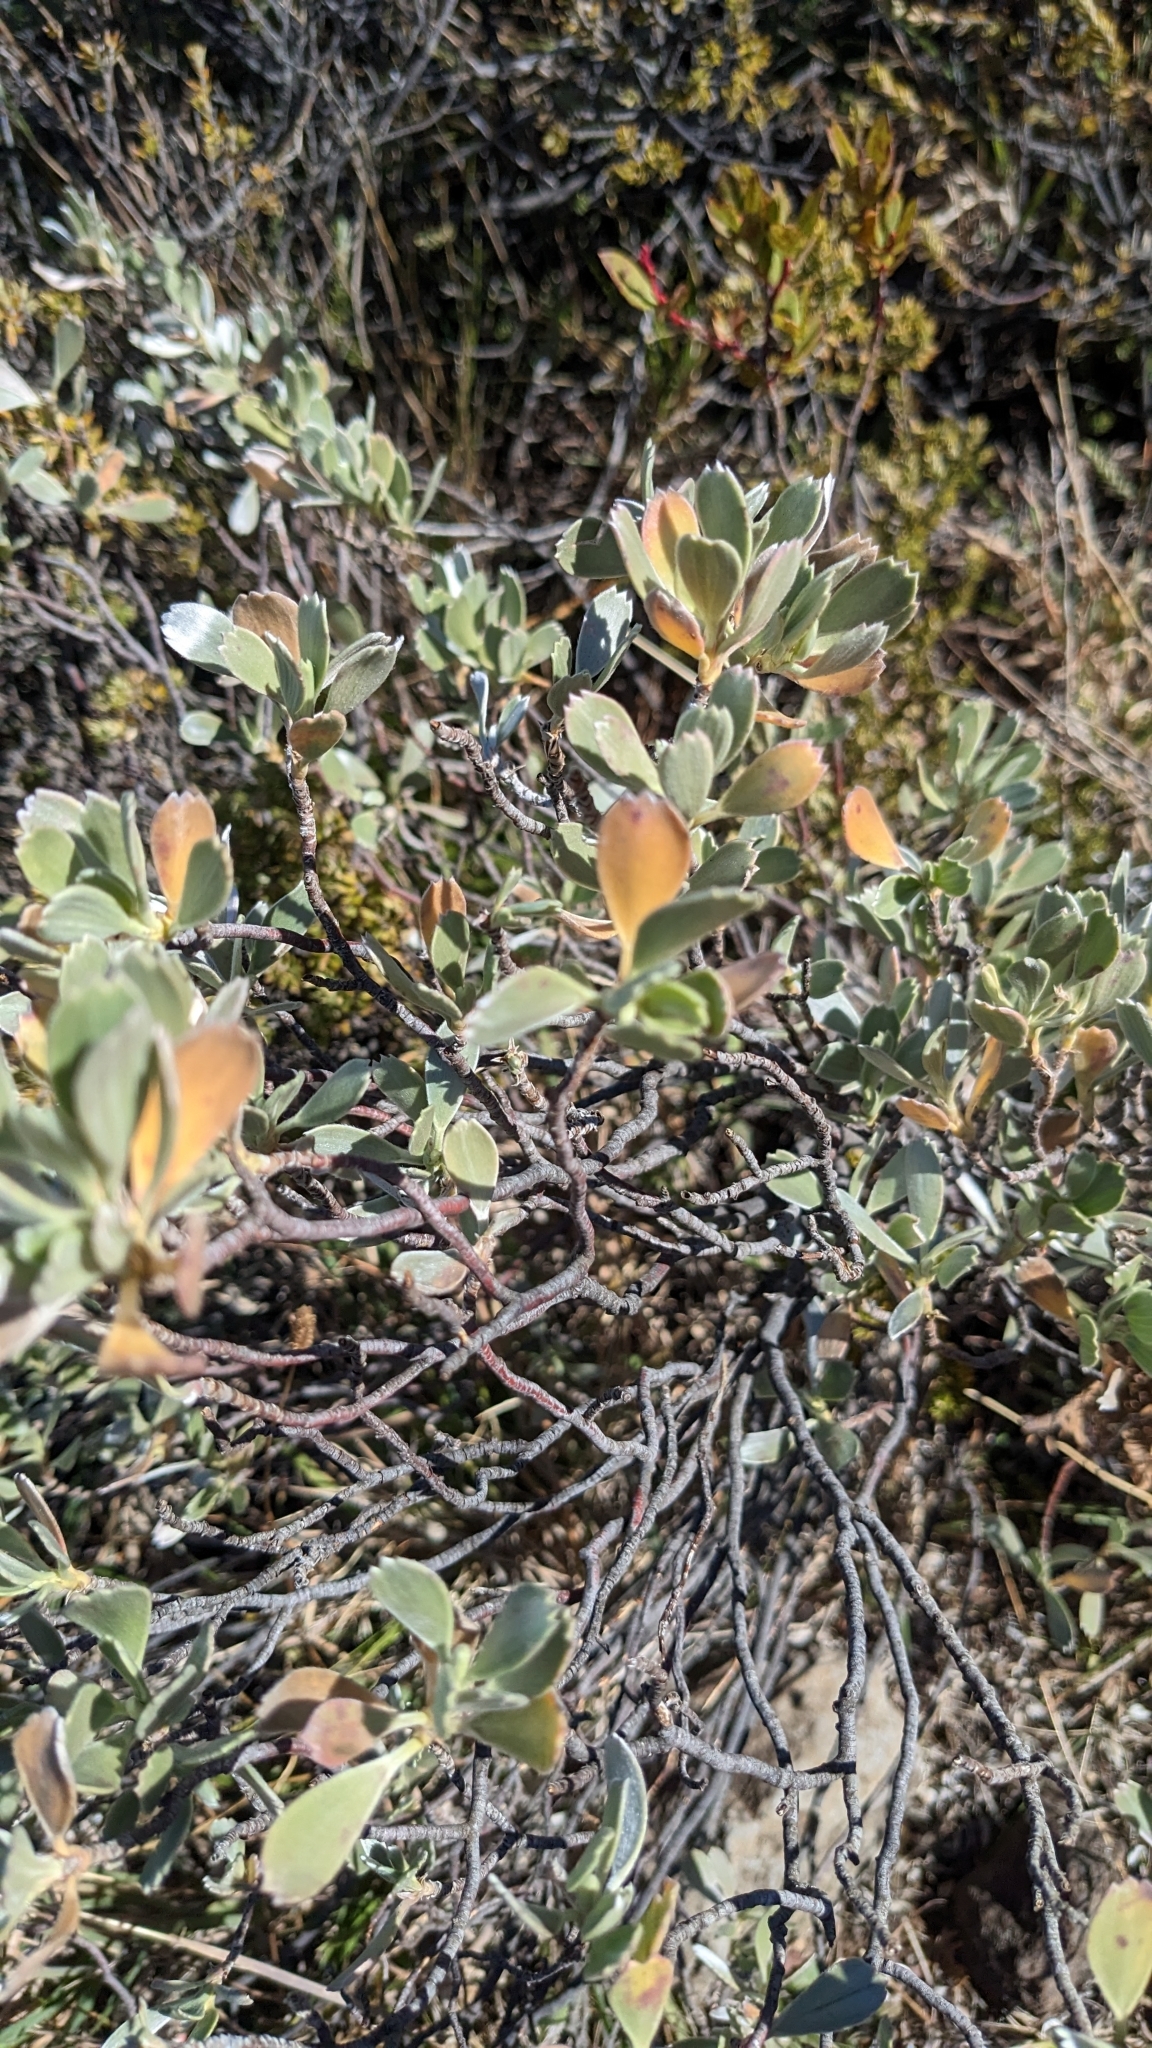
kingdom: Plantae
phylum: Tracheophyta
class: Magnoliopsida
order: Geraniales
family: Geraniaceae
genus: Geranium
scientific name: Geranium cuneatum
